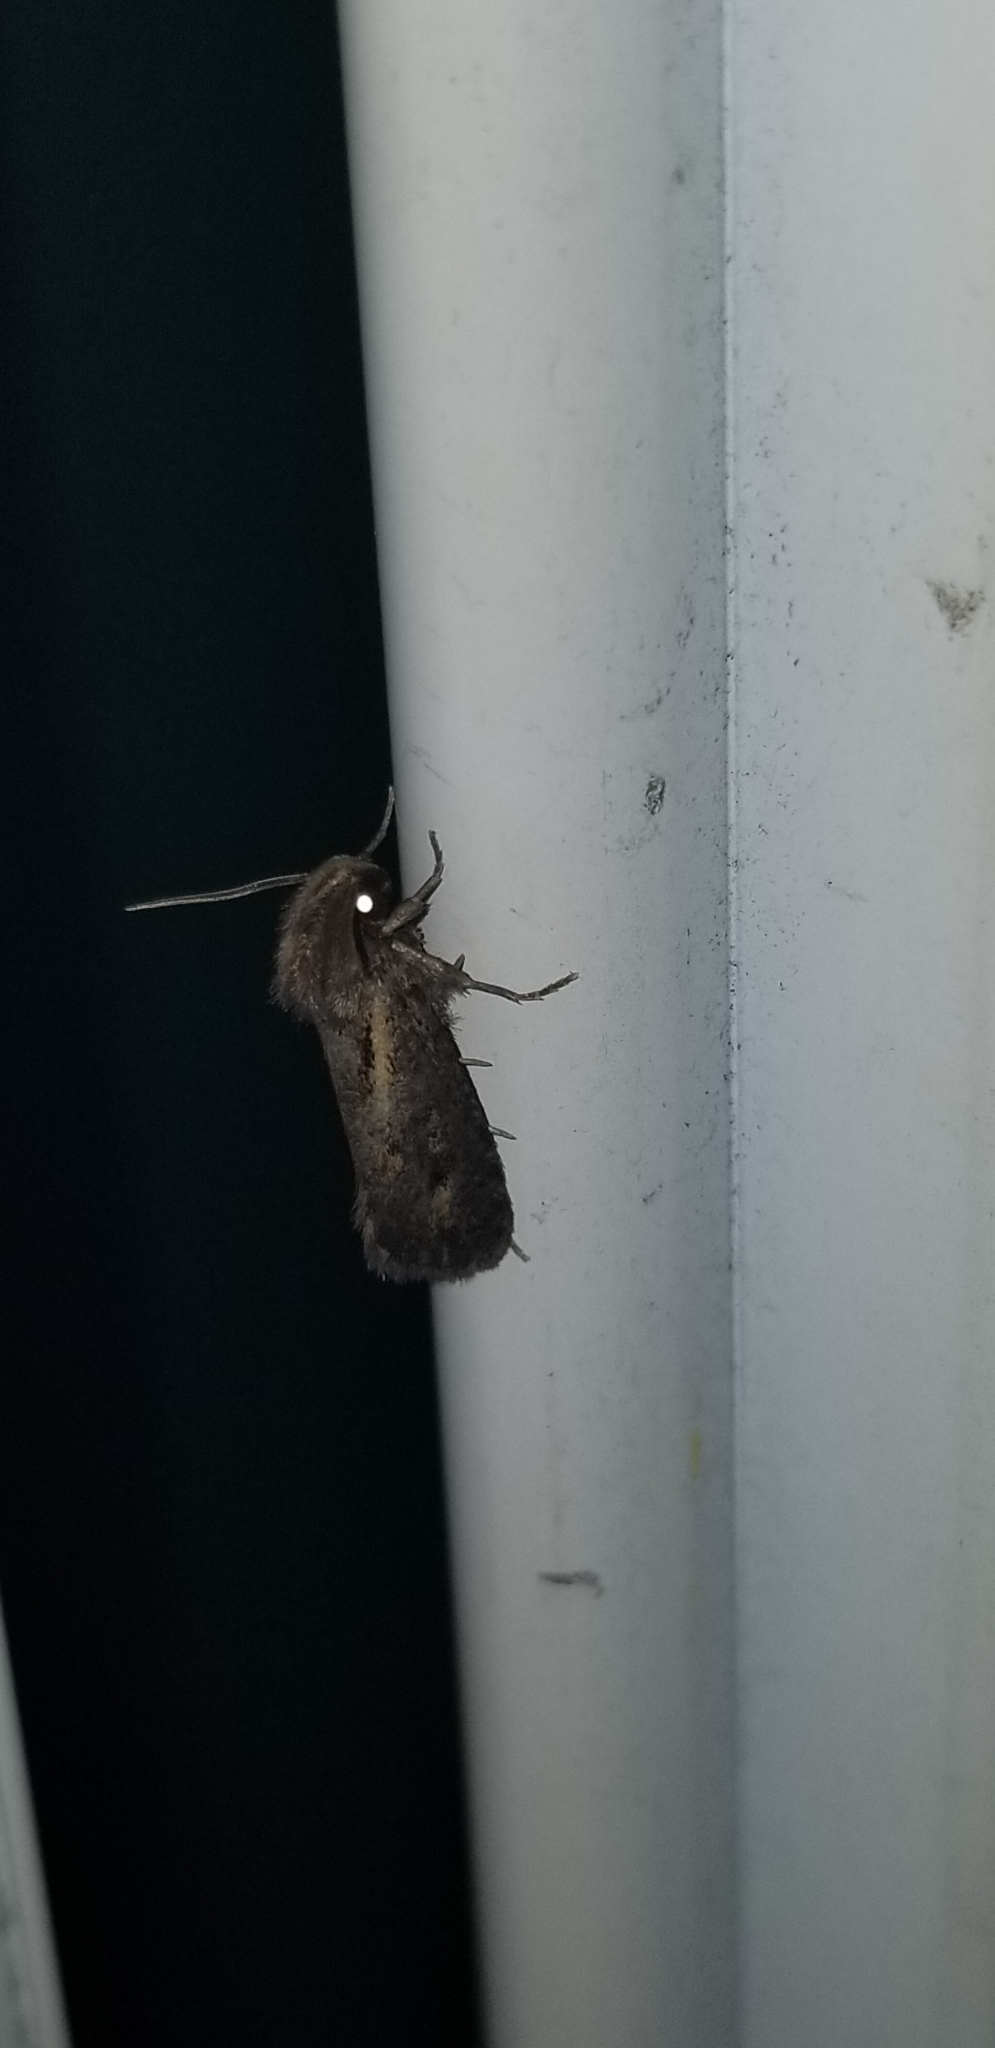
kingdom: Animalia
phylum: Arthropoda
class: Insecta
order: Lepidoptera
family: Tineidae
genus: Acrolophus
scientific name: Acrolophus arcanella
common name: Arcane grass tubeworm moth
